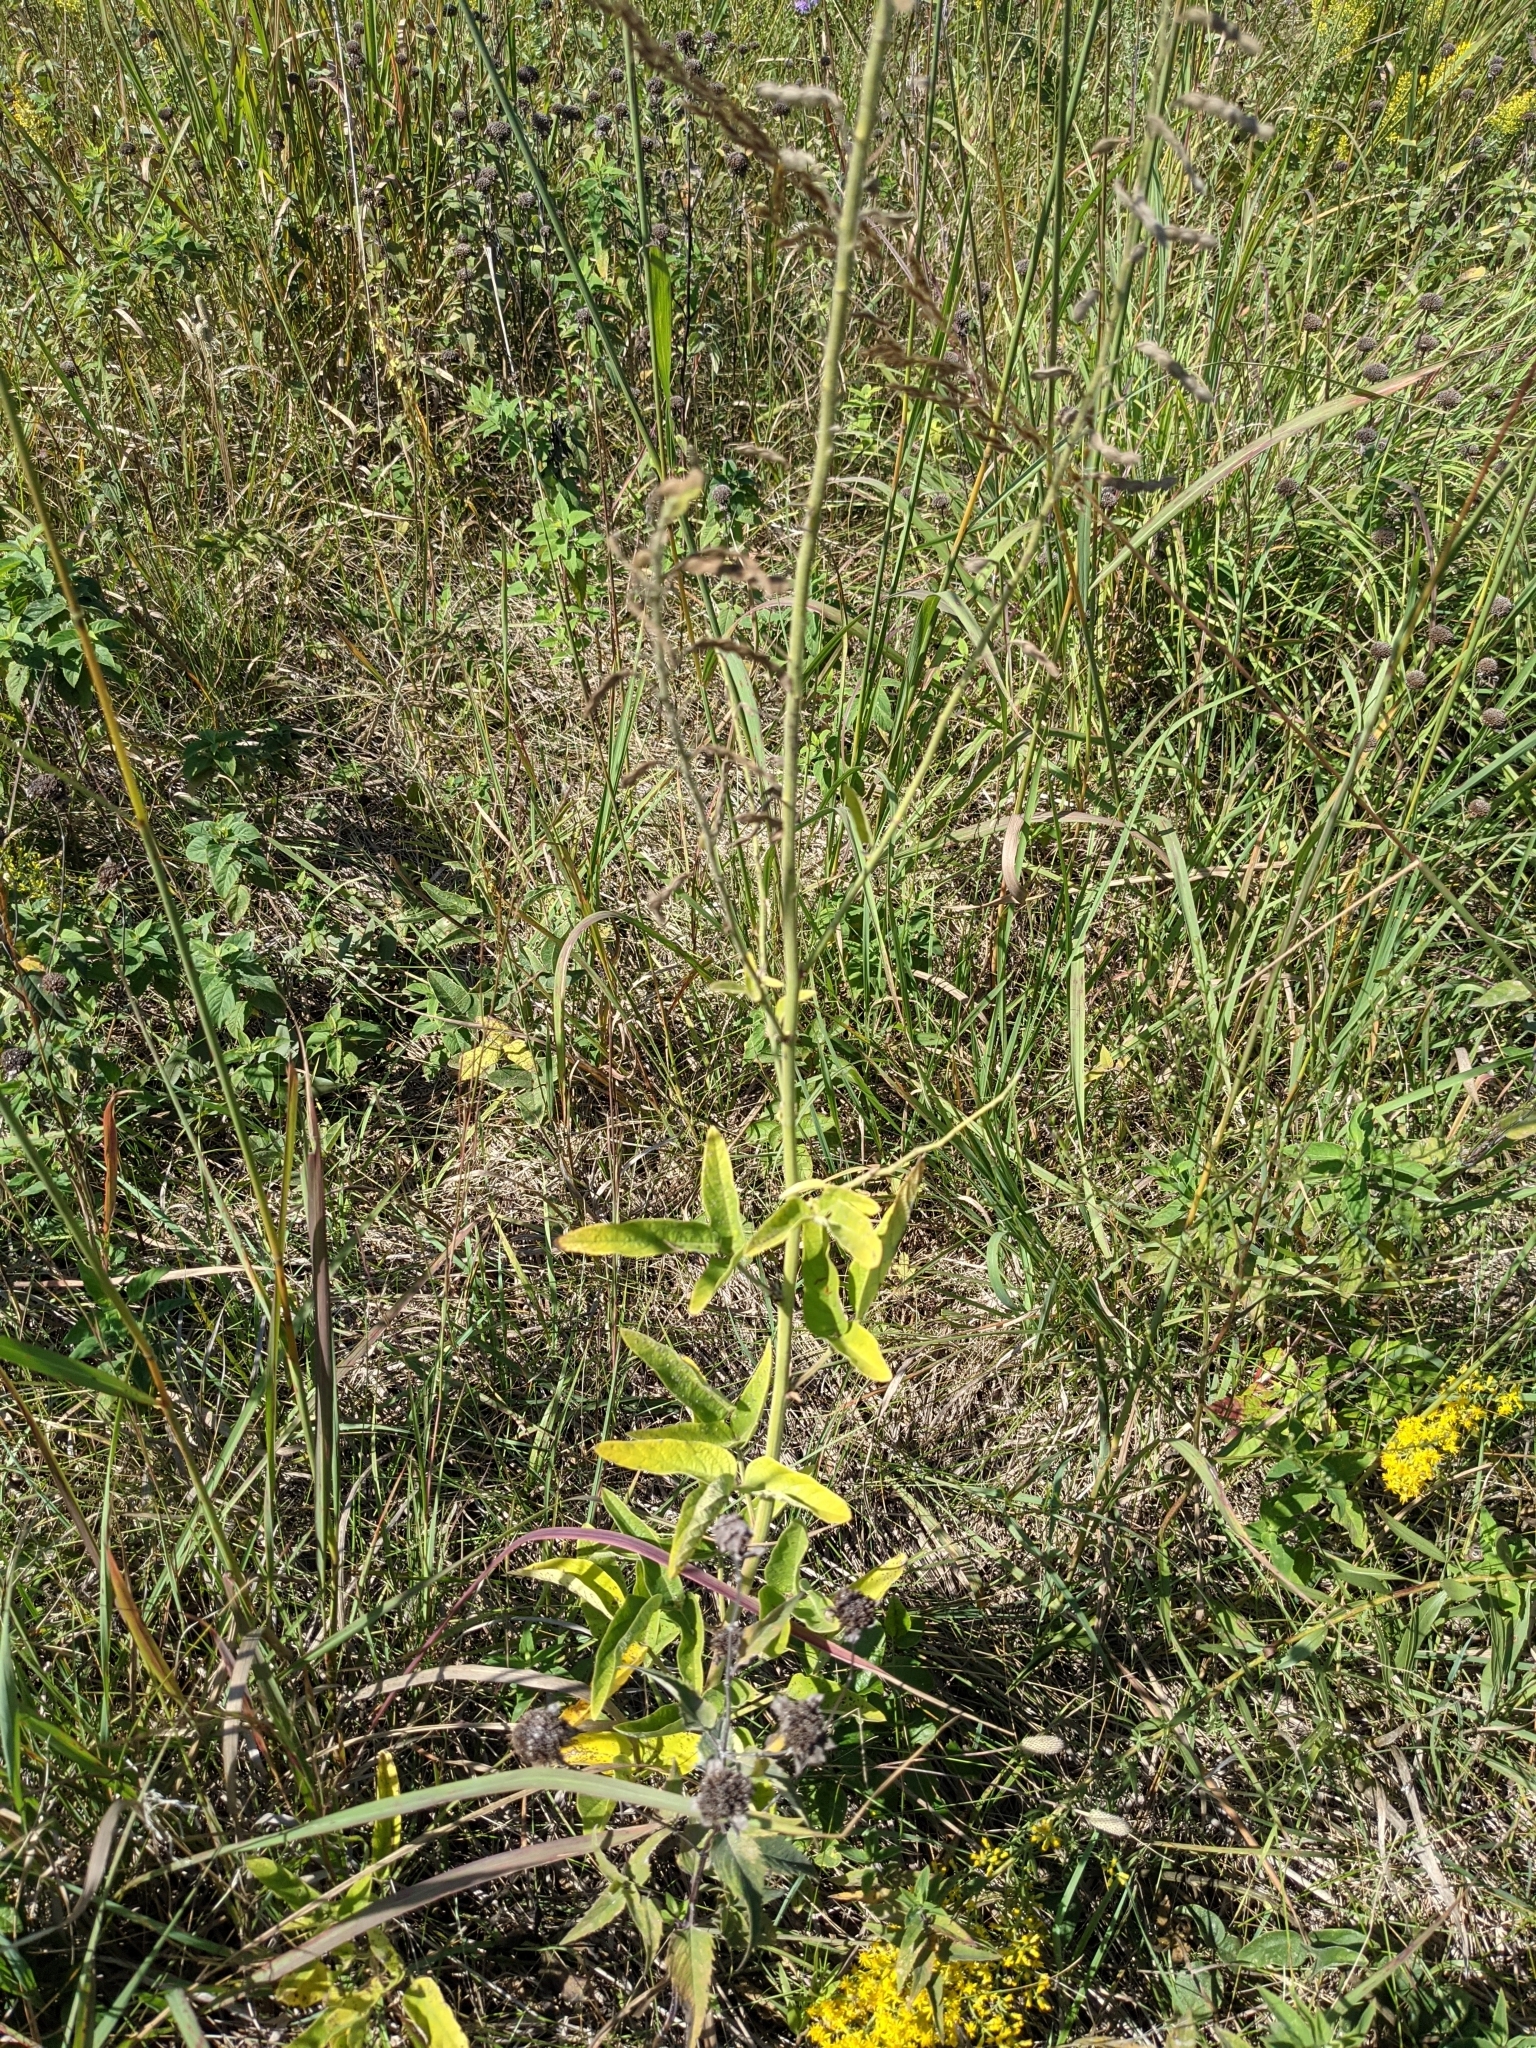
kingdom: Plantae
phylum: Tracheophyta
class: Magnoliopsida
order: Fabales
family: Fabaceae
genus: Desmodium
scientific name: Desmodium illinoense
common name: Illinois tick-clover
